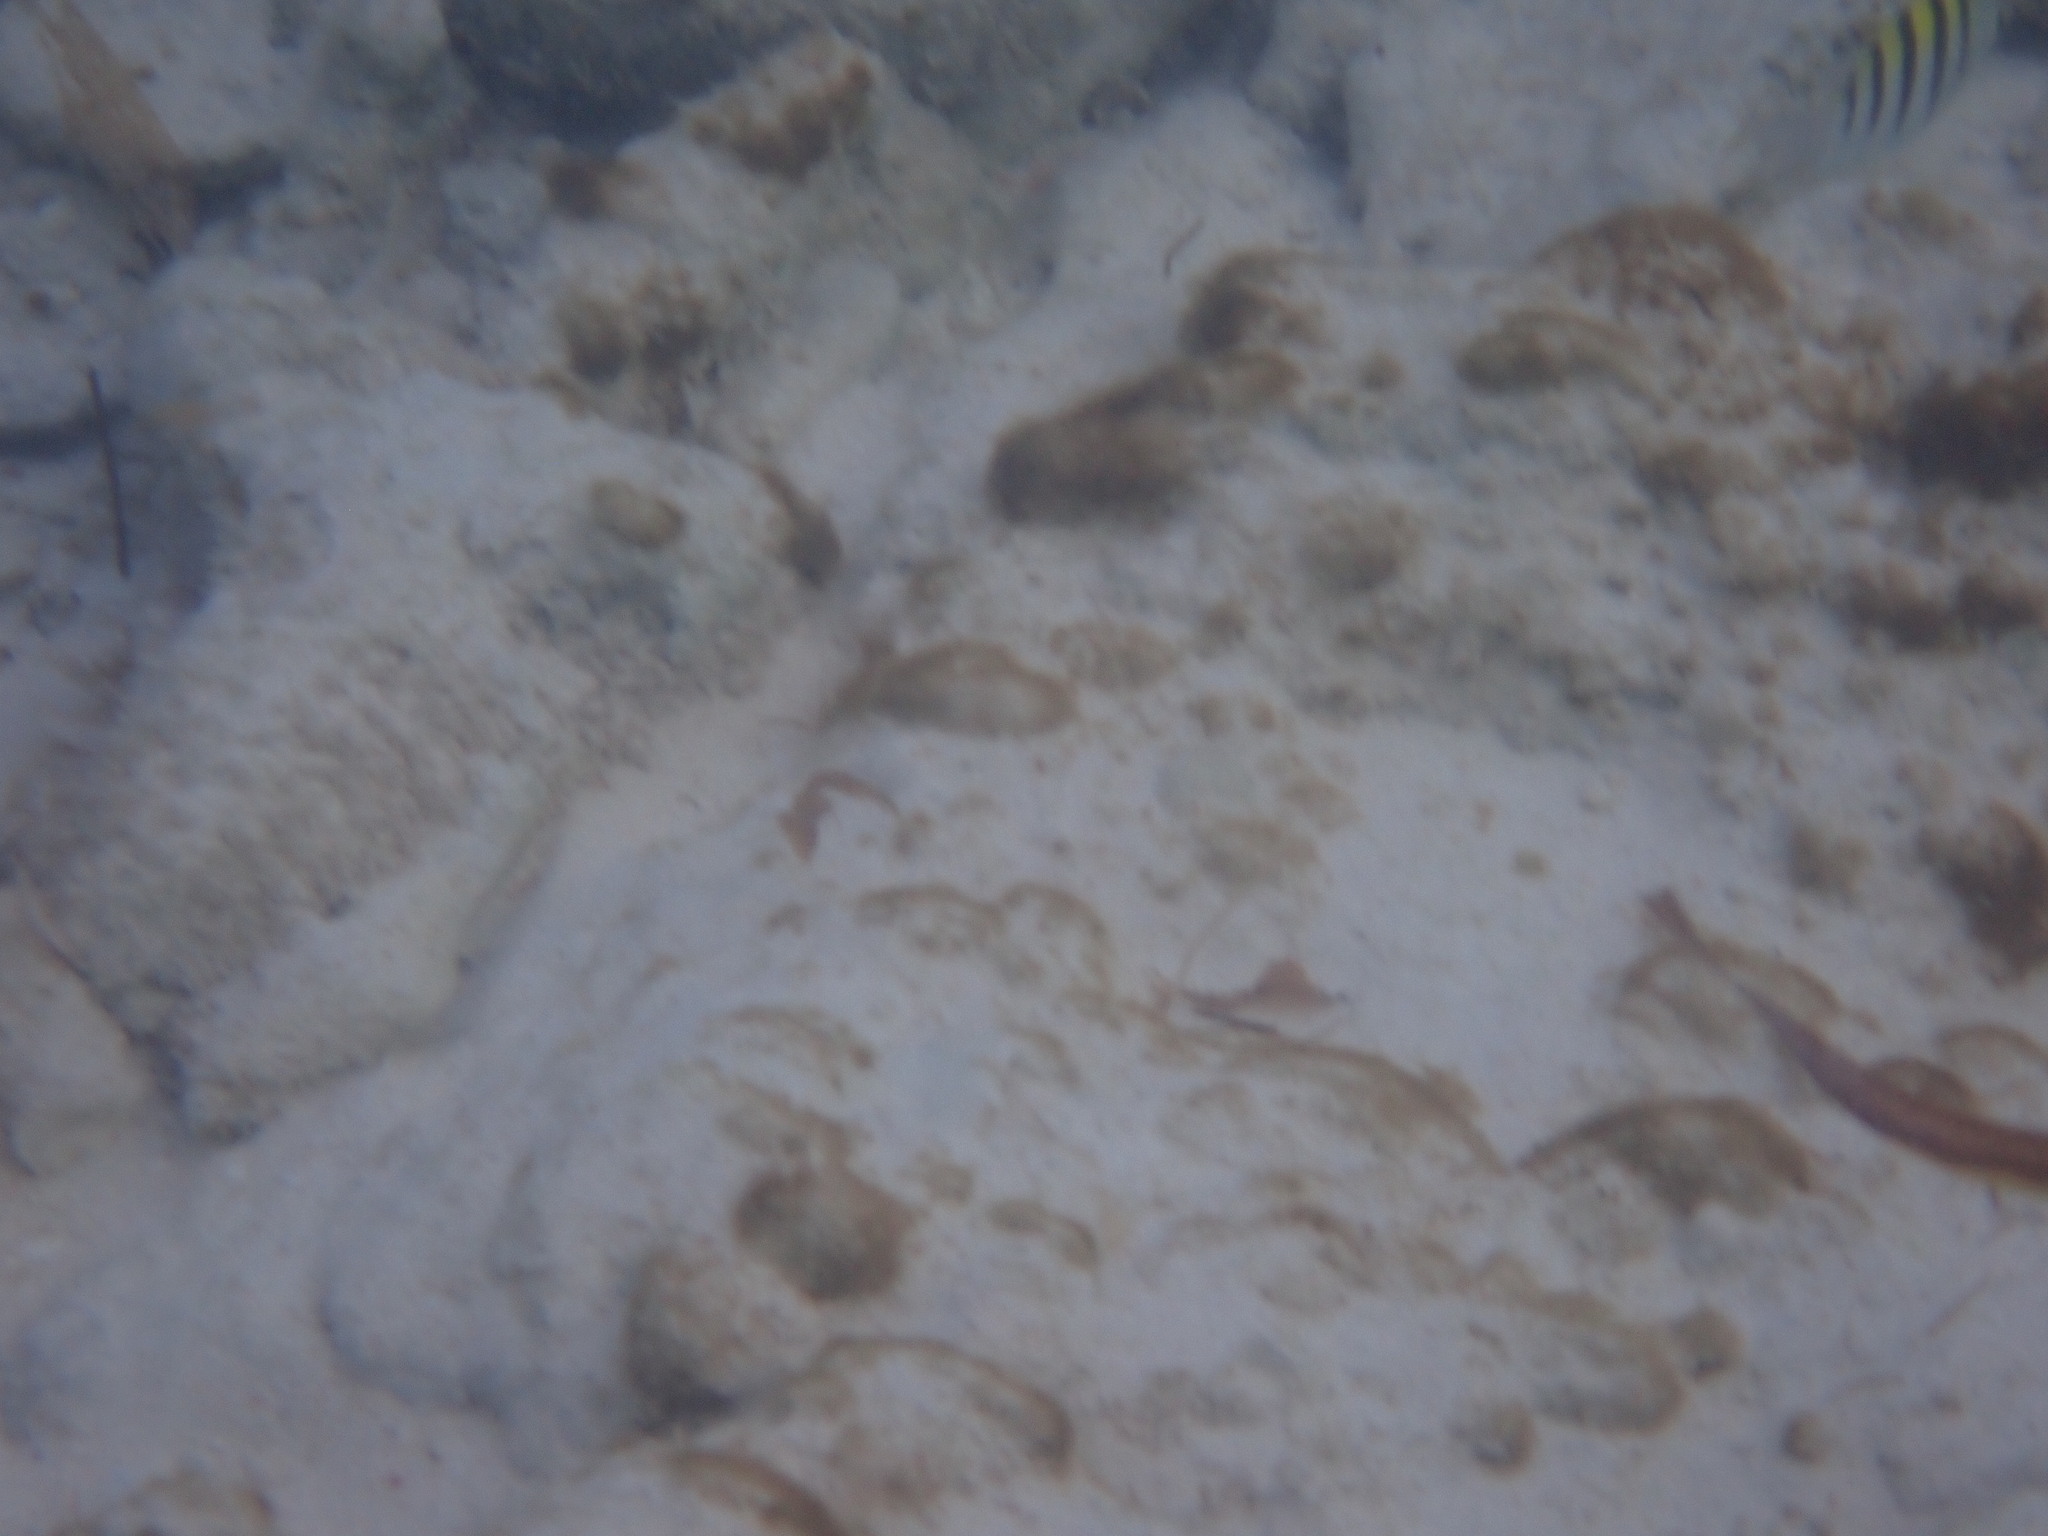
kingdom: Animalia
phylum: Chordata
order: Perciformes
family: Pomacentridae
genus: Abudefduf
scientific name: Abudefduf saxatilis
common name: Sergeant major
